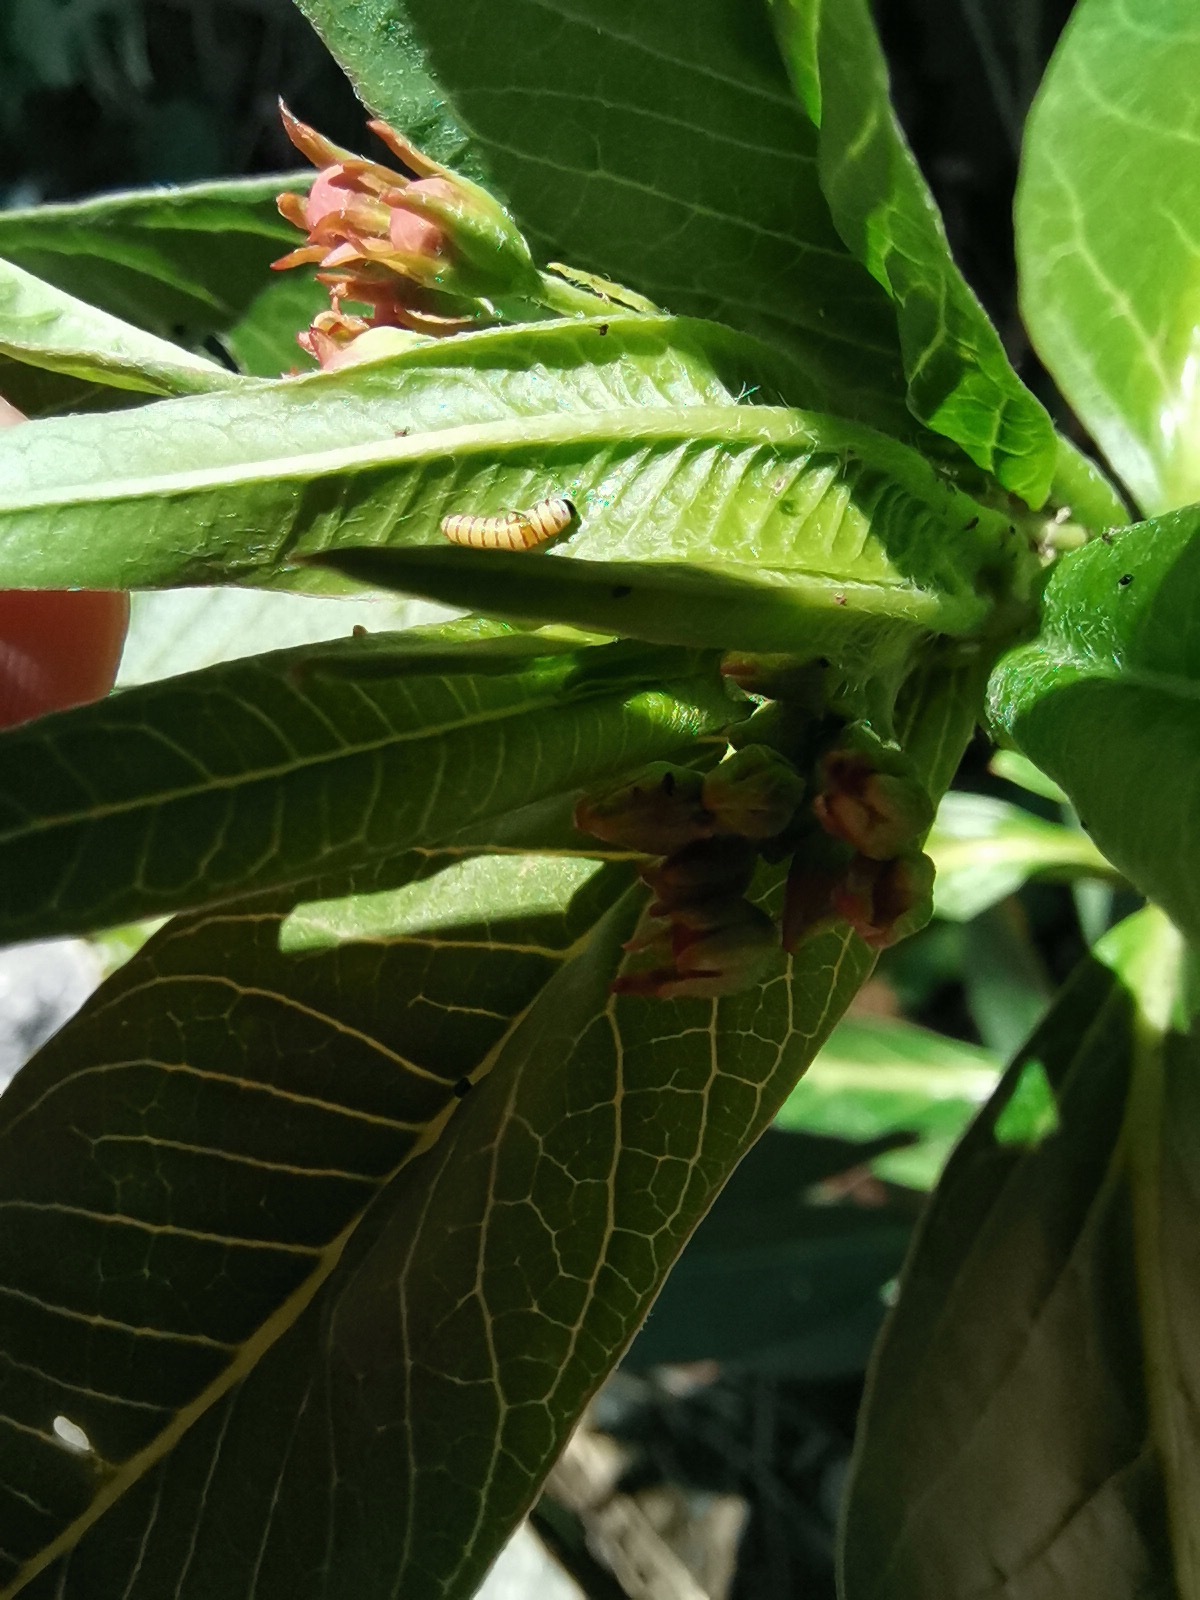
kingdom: Animalia
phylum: Arthropoda
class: Insecta
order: Lepidoptera
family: Nymphalidae
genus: Danaus
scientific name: Danaus plexippus
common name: Monarch
